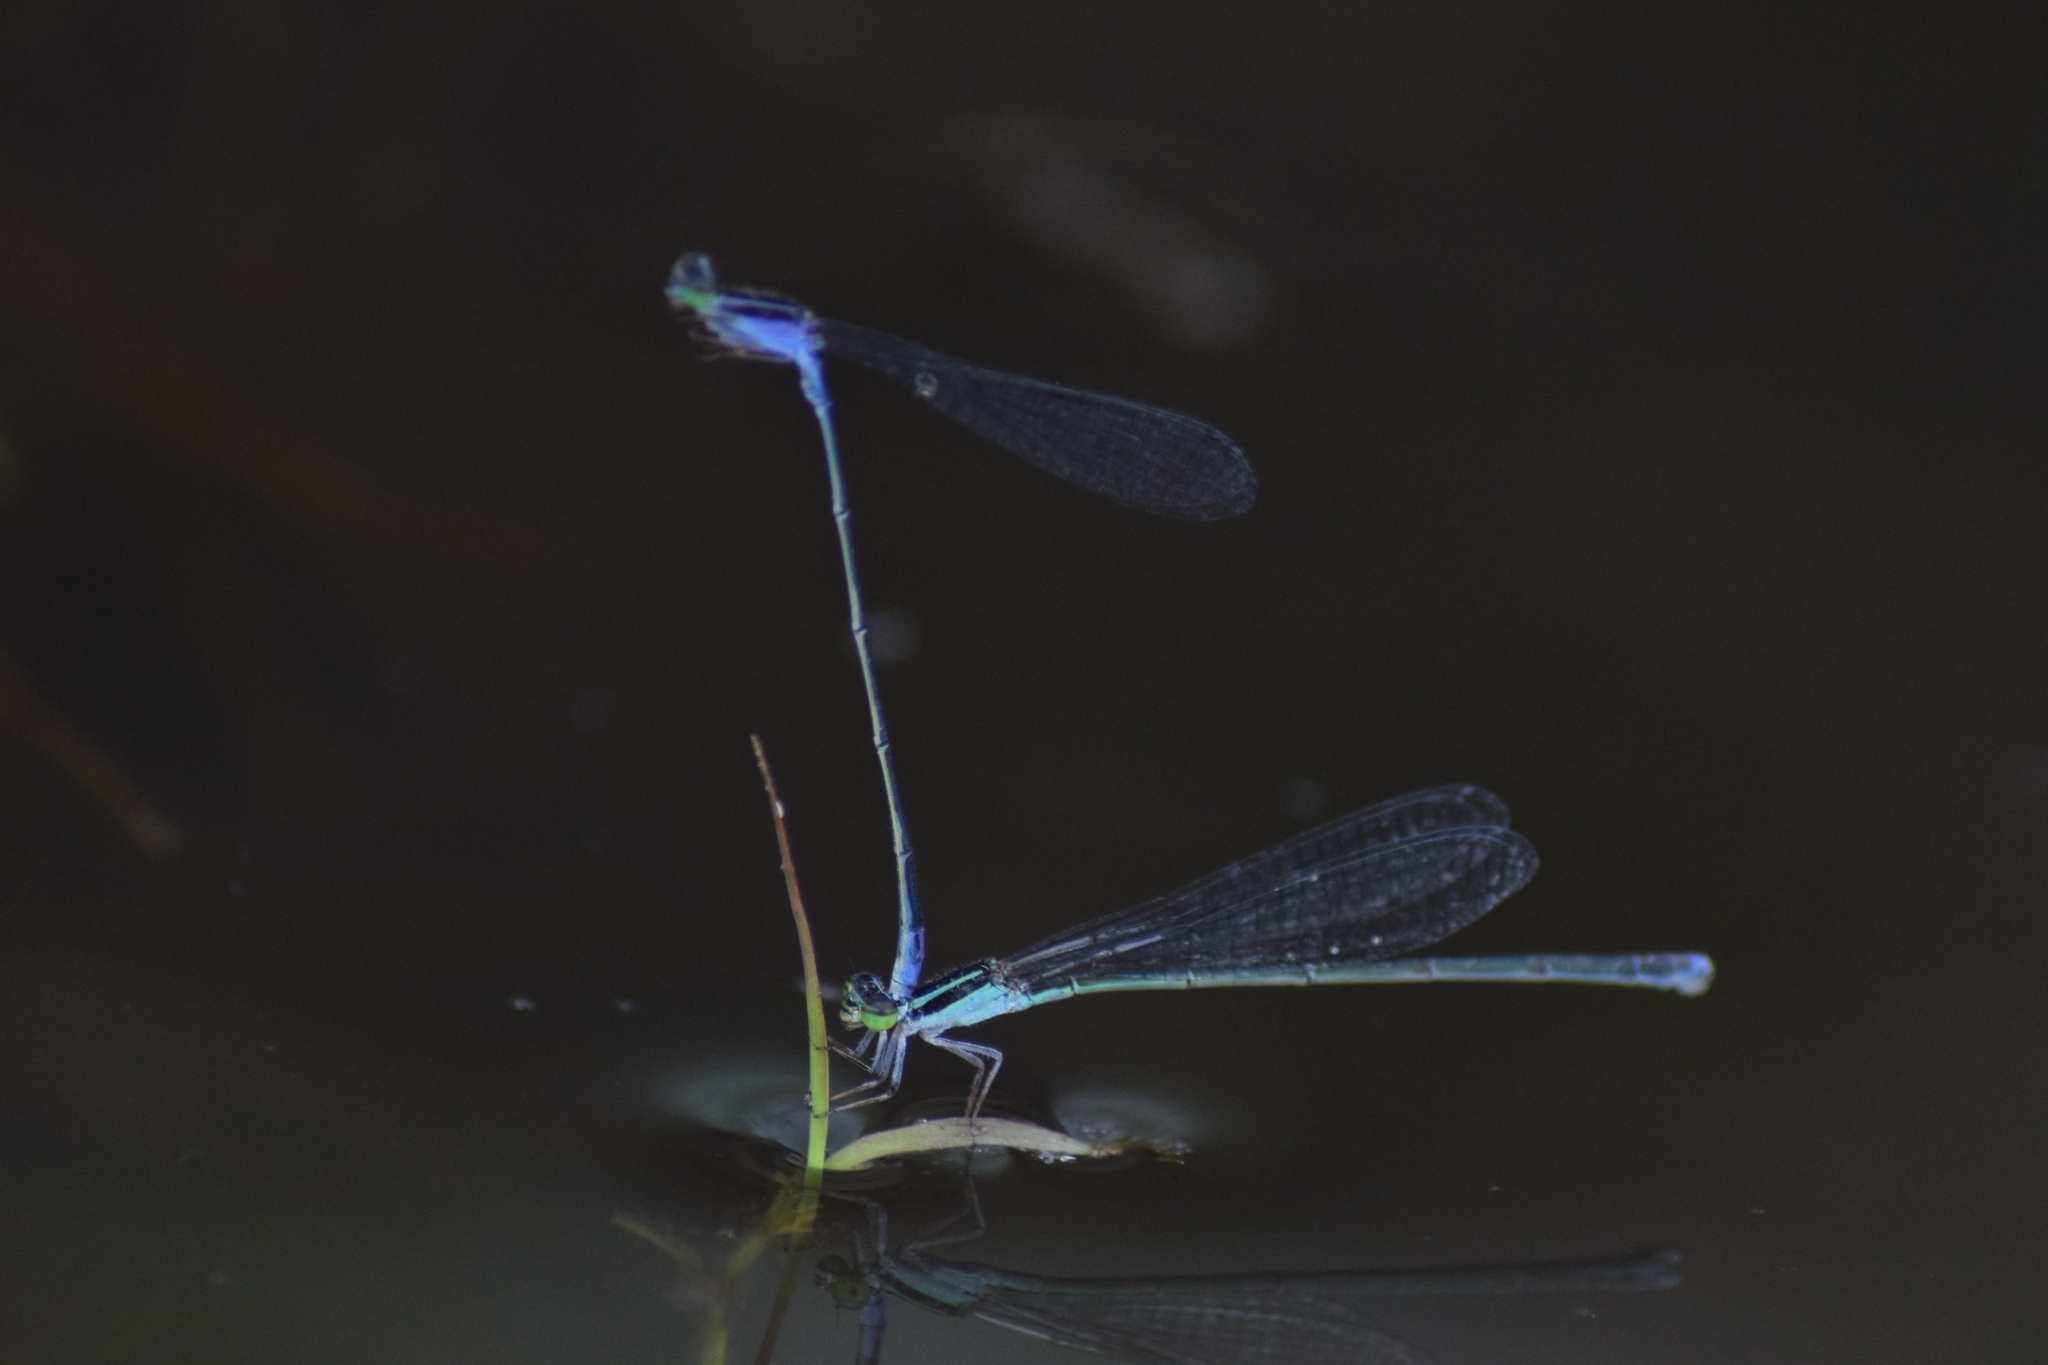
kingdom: Animalia
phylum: Arthropoda
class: Insecta
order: Odonata
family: Coenagrionidae
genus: Aciagrion
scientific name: Aciagrion approximans
